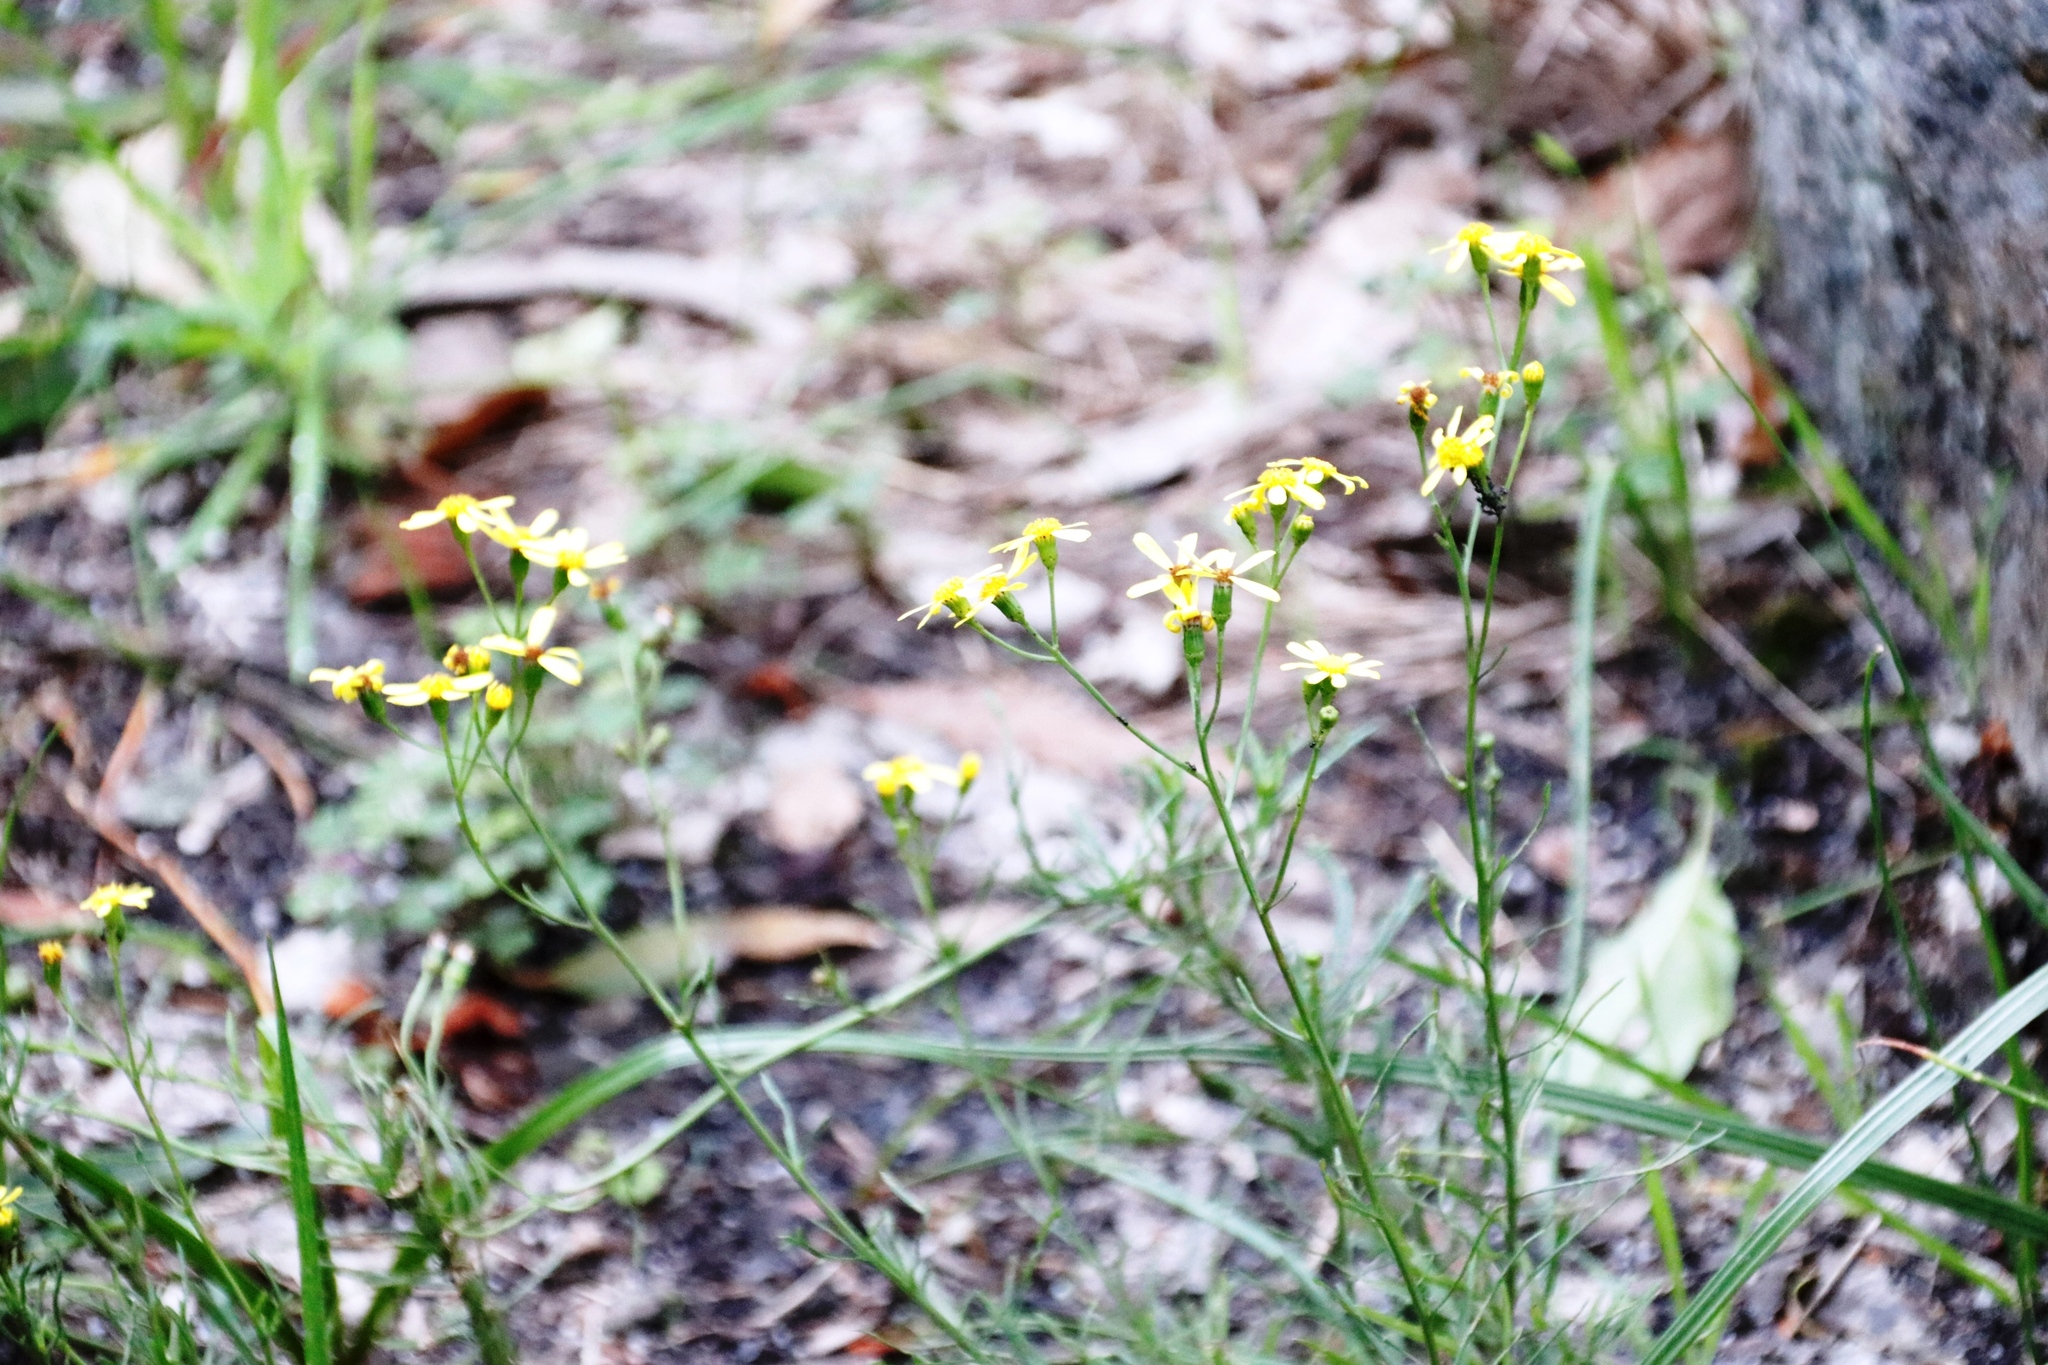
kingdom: Plantae
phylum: Tracheophyta
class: Magnoliopsida
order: Asterales
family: Asteraceae
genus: Senecio
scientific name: Senecio burchellii
